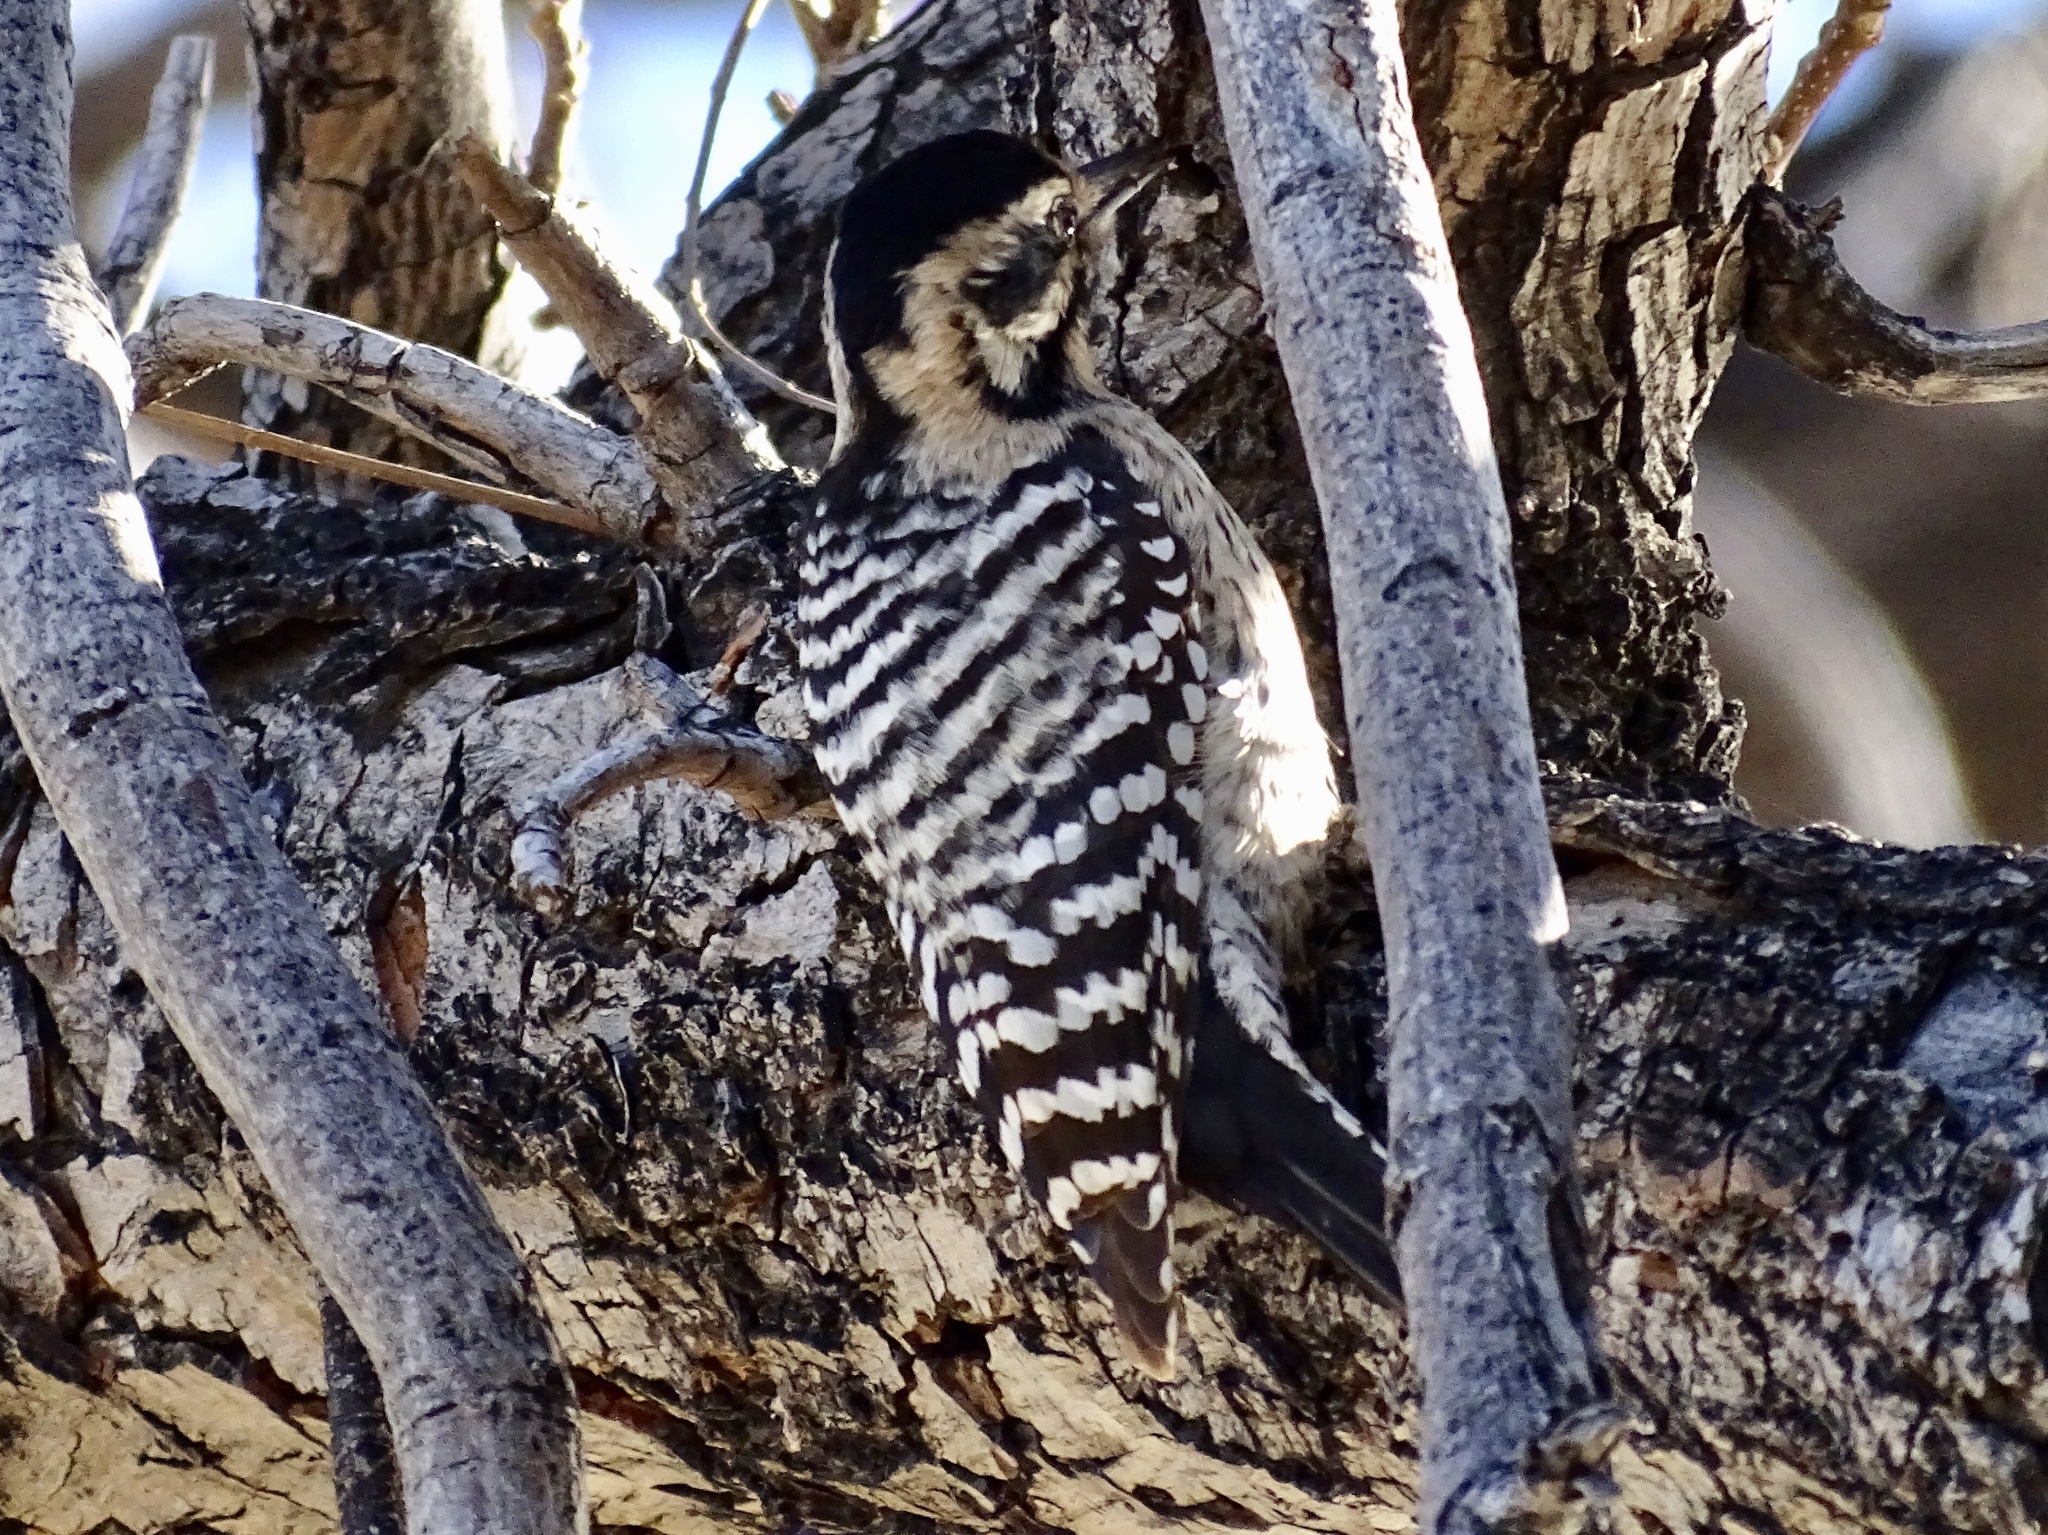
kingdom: Animalia
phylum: Chordata
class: Aves
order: Piciformes
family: Picidae
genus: Dryobates
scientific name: Dryobates scalaris
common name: Ladder-backed woodpecker
